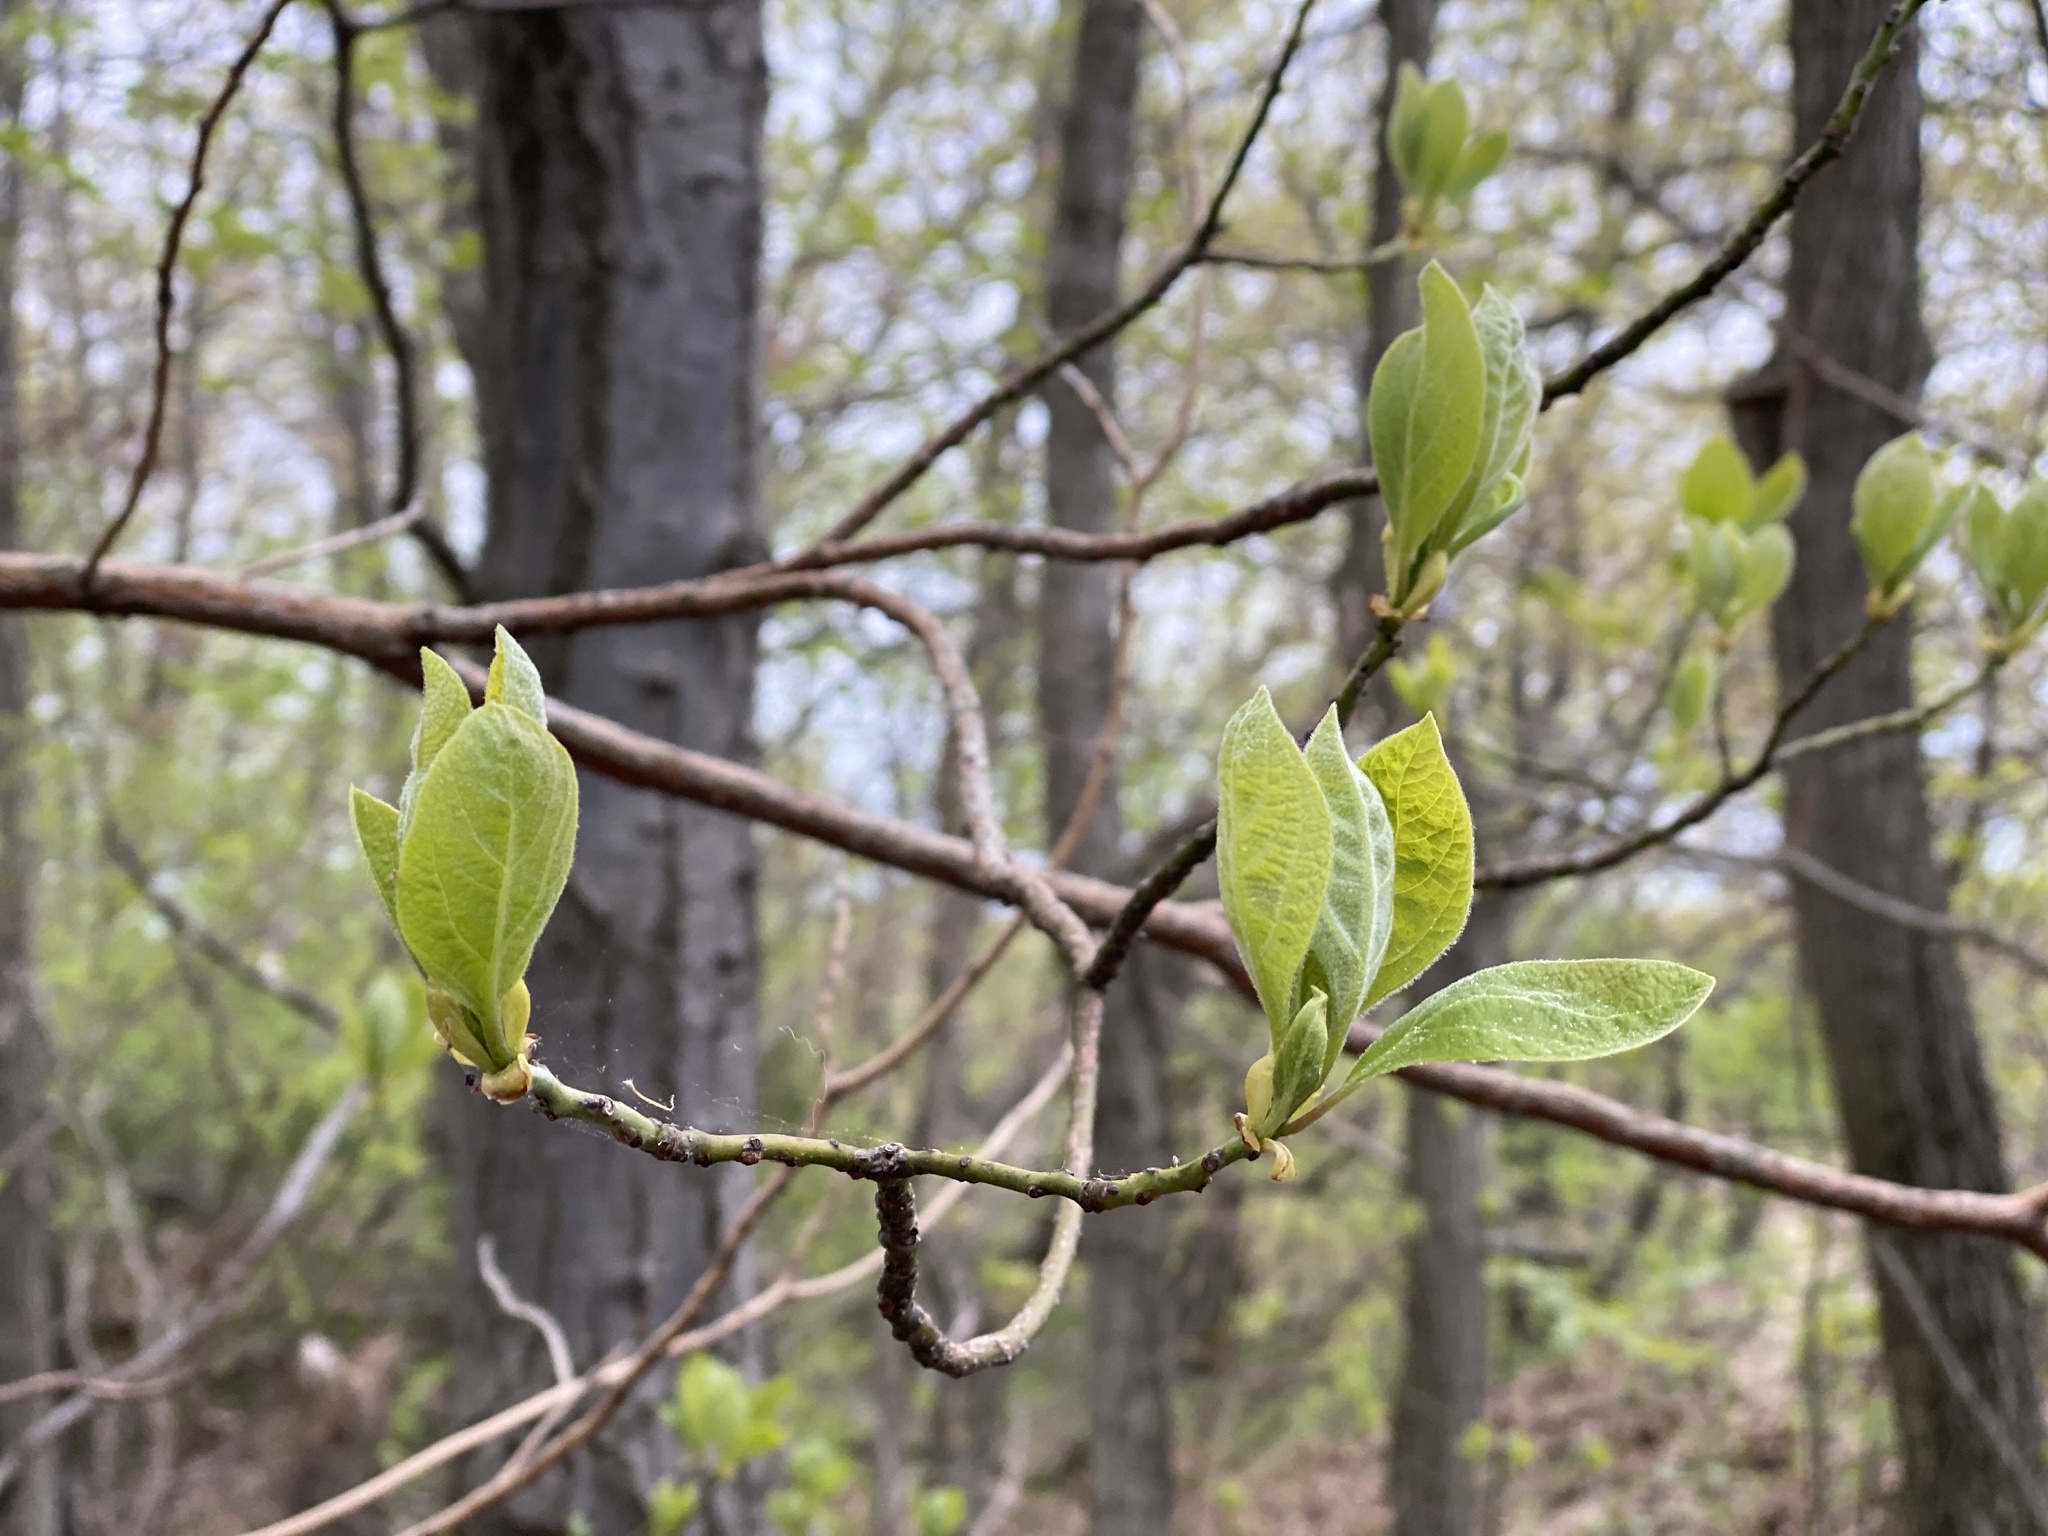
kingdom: Plantae
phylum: Tracheophyta
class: Magnoliopsida
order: Laurales
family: Lauraceae
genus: Sassafras
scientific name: Sassafras albidum
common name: Sassafras
